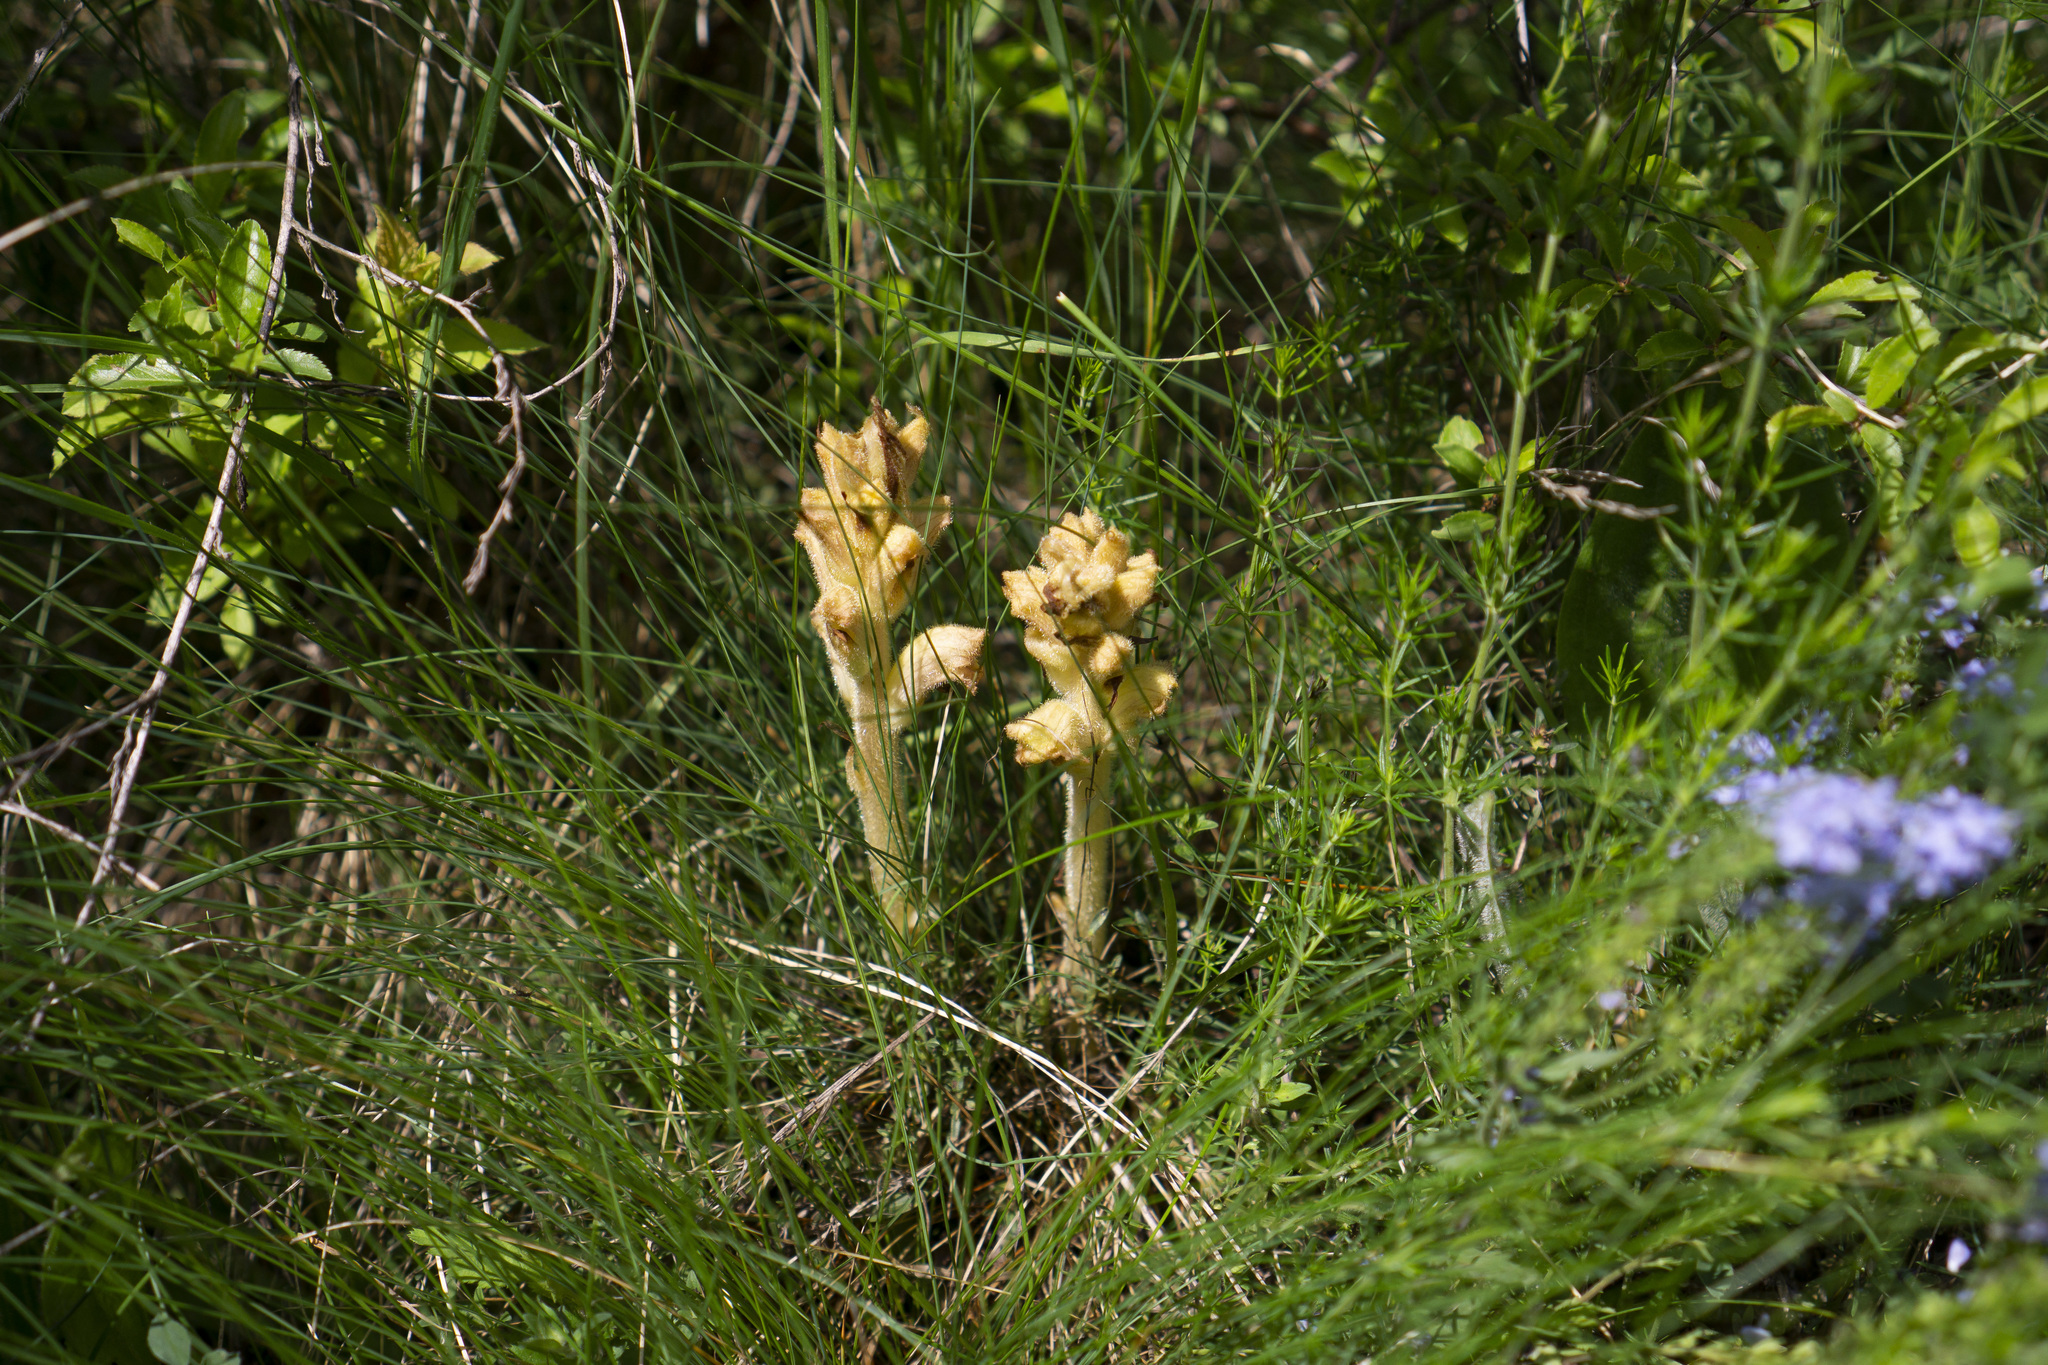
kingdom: Plantae
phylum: Tracheophyta
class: Magnoliopsida
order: Lamiales
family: Orobanchaceae
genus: Orobanche
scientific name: Orobanche caryophyllacea
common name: Bedstraw broomrape
